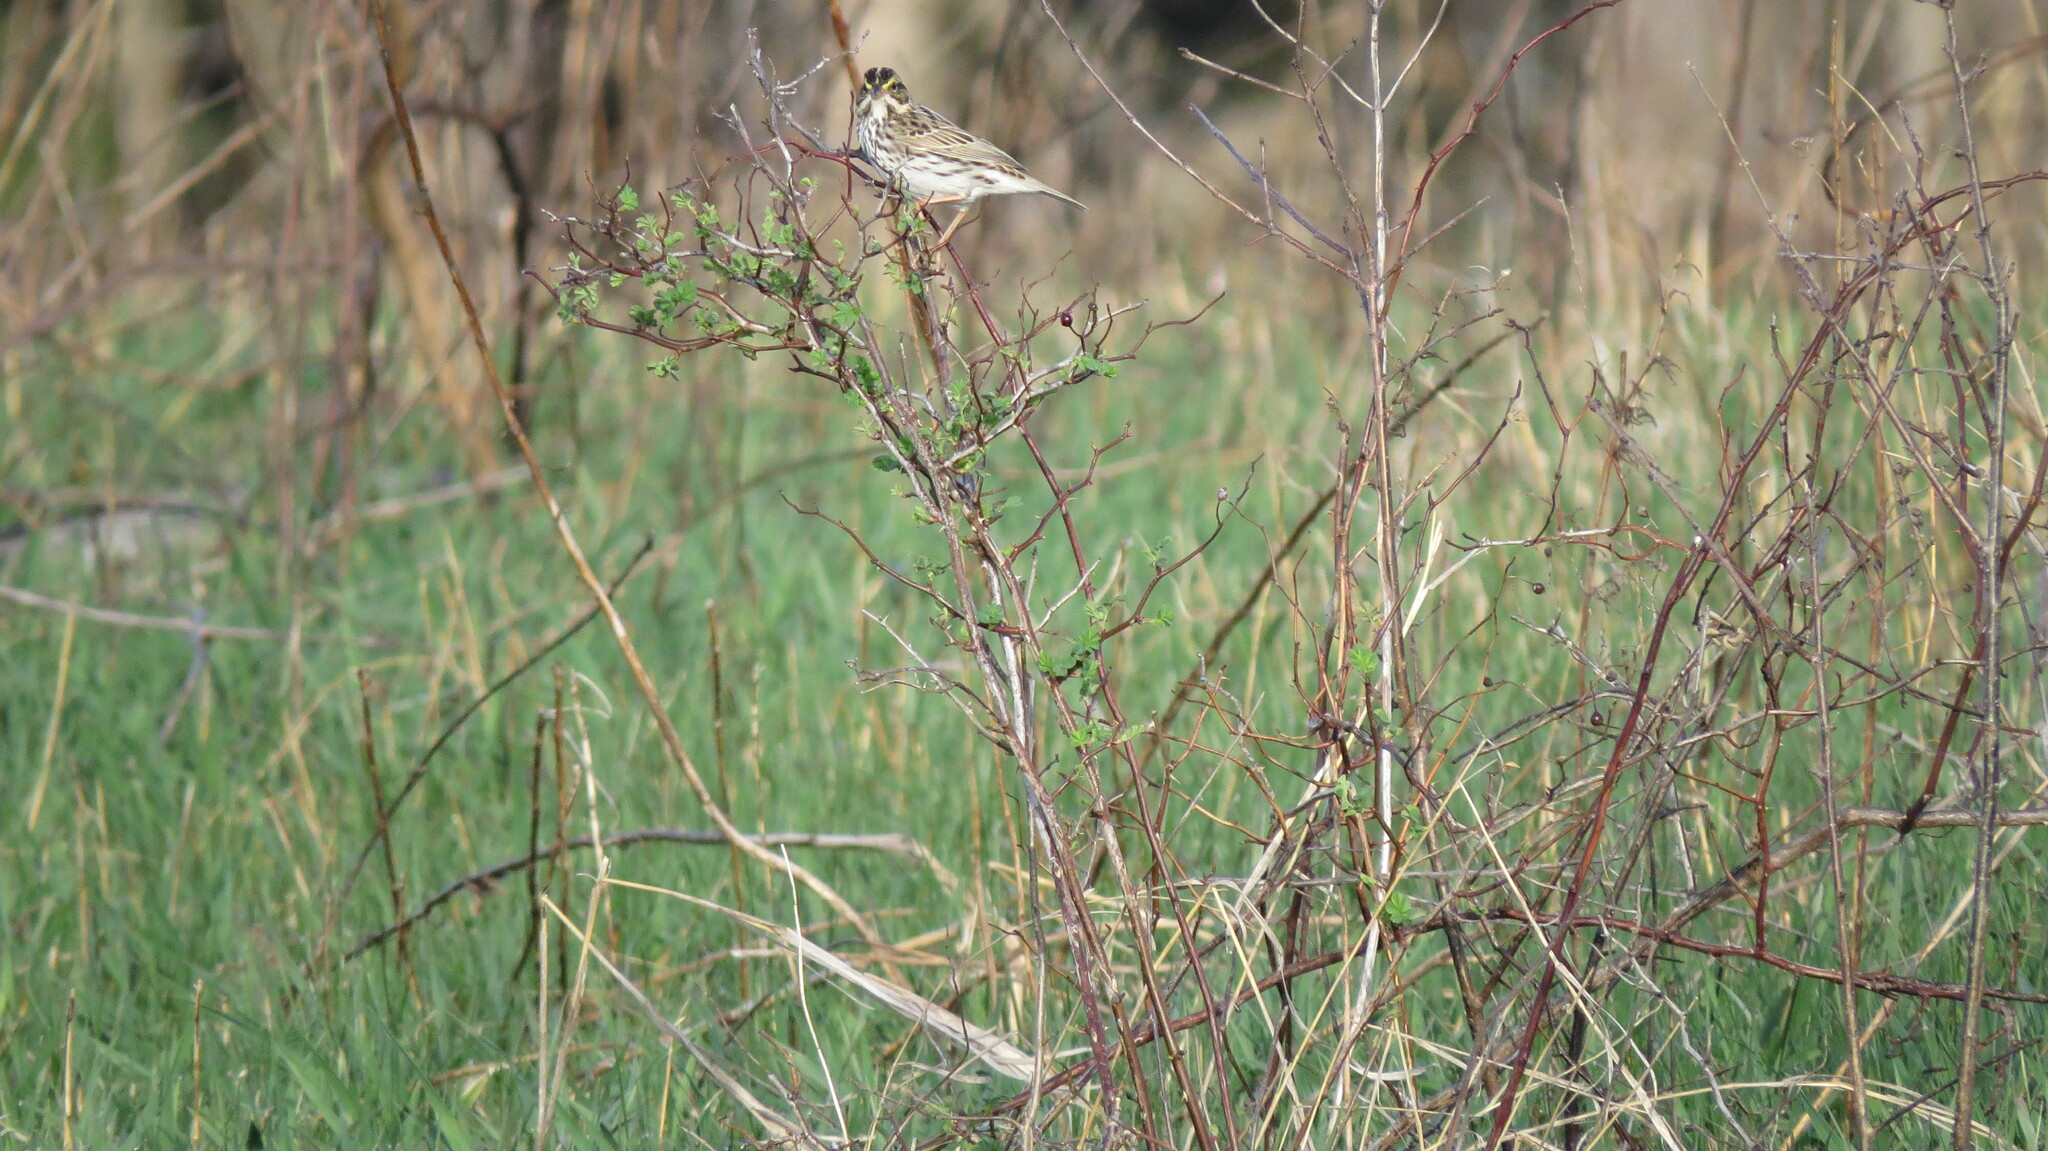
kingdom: Animalia
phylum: Chordata
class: Aves
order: Passeriformes
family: Passerellidae
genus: Passerculus
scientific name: Passerculus sandwichensis
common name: Savannah sparrow
